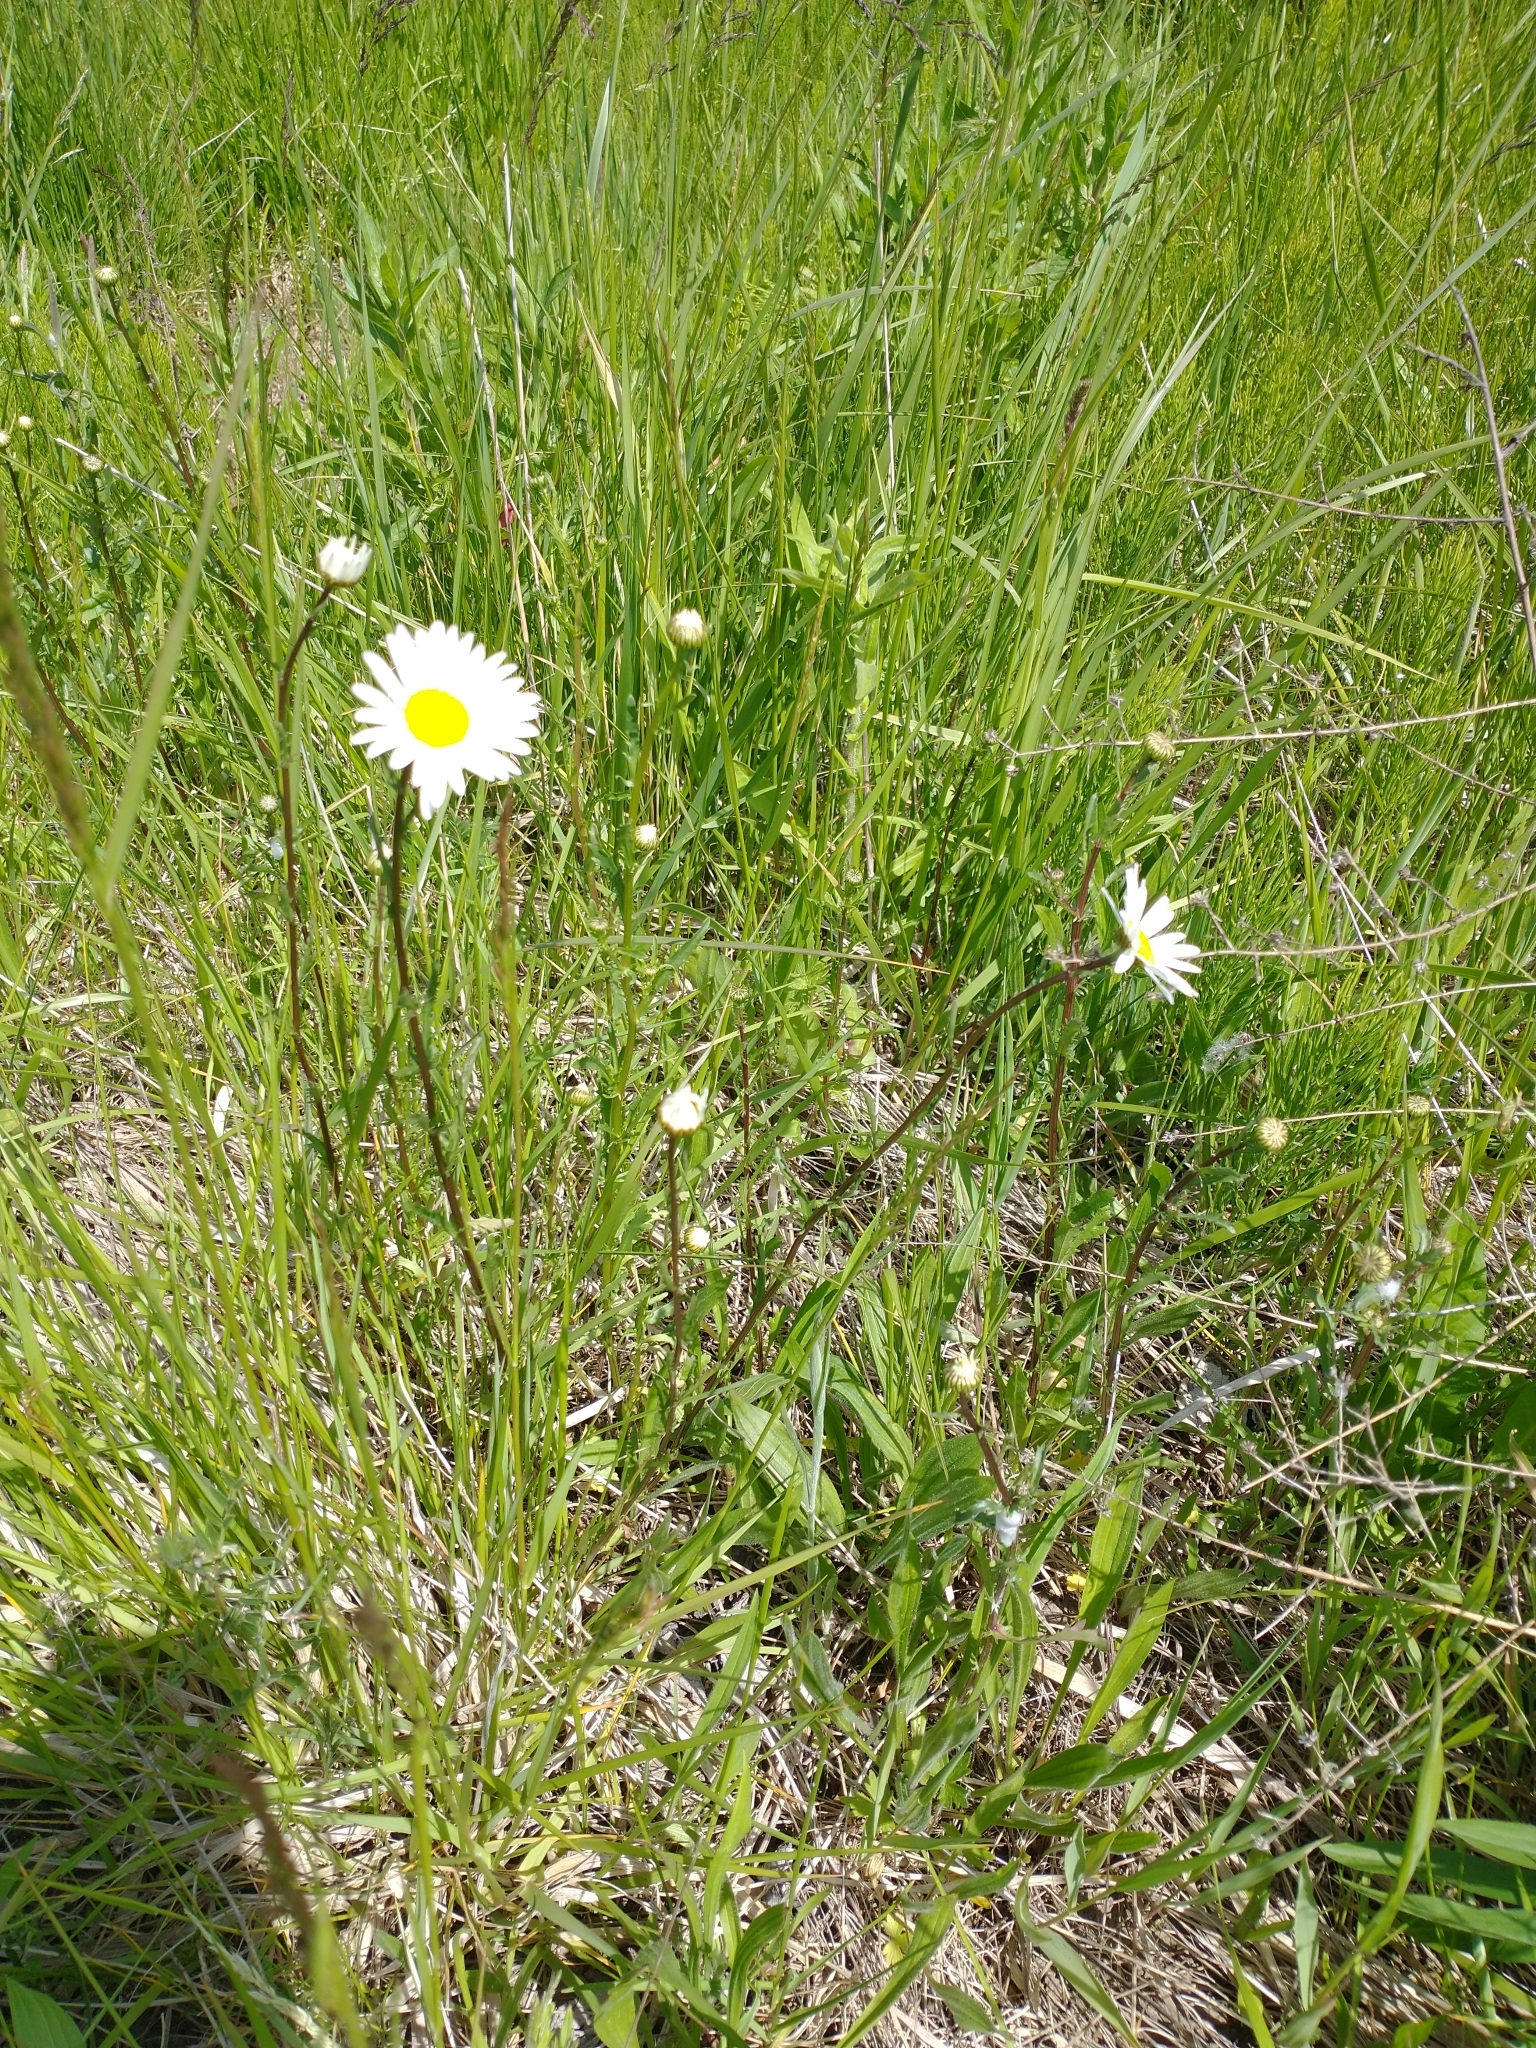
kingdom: Plantae
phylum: Tracheophyta
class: Magnoliopsida
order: Asterales
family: Asteraceae
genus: Leucanthemum
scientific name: Leucanthemum vulgare
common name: Oxeye daisy
